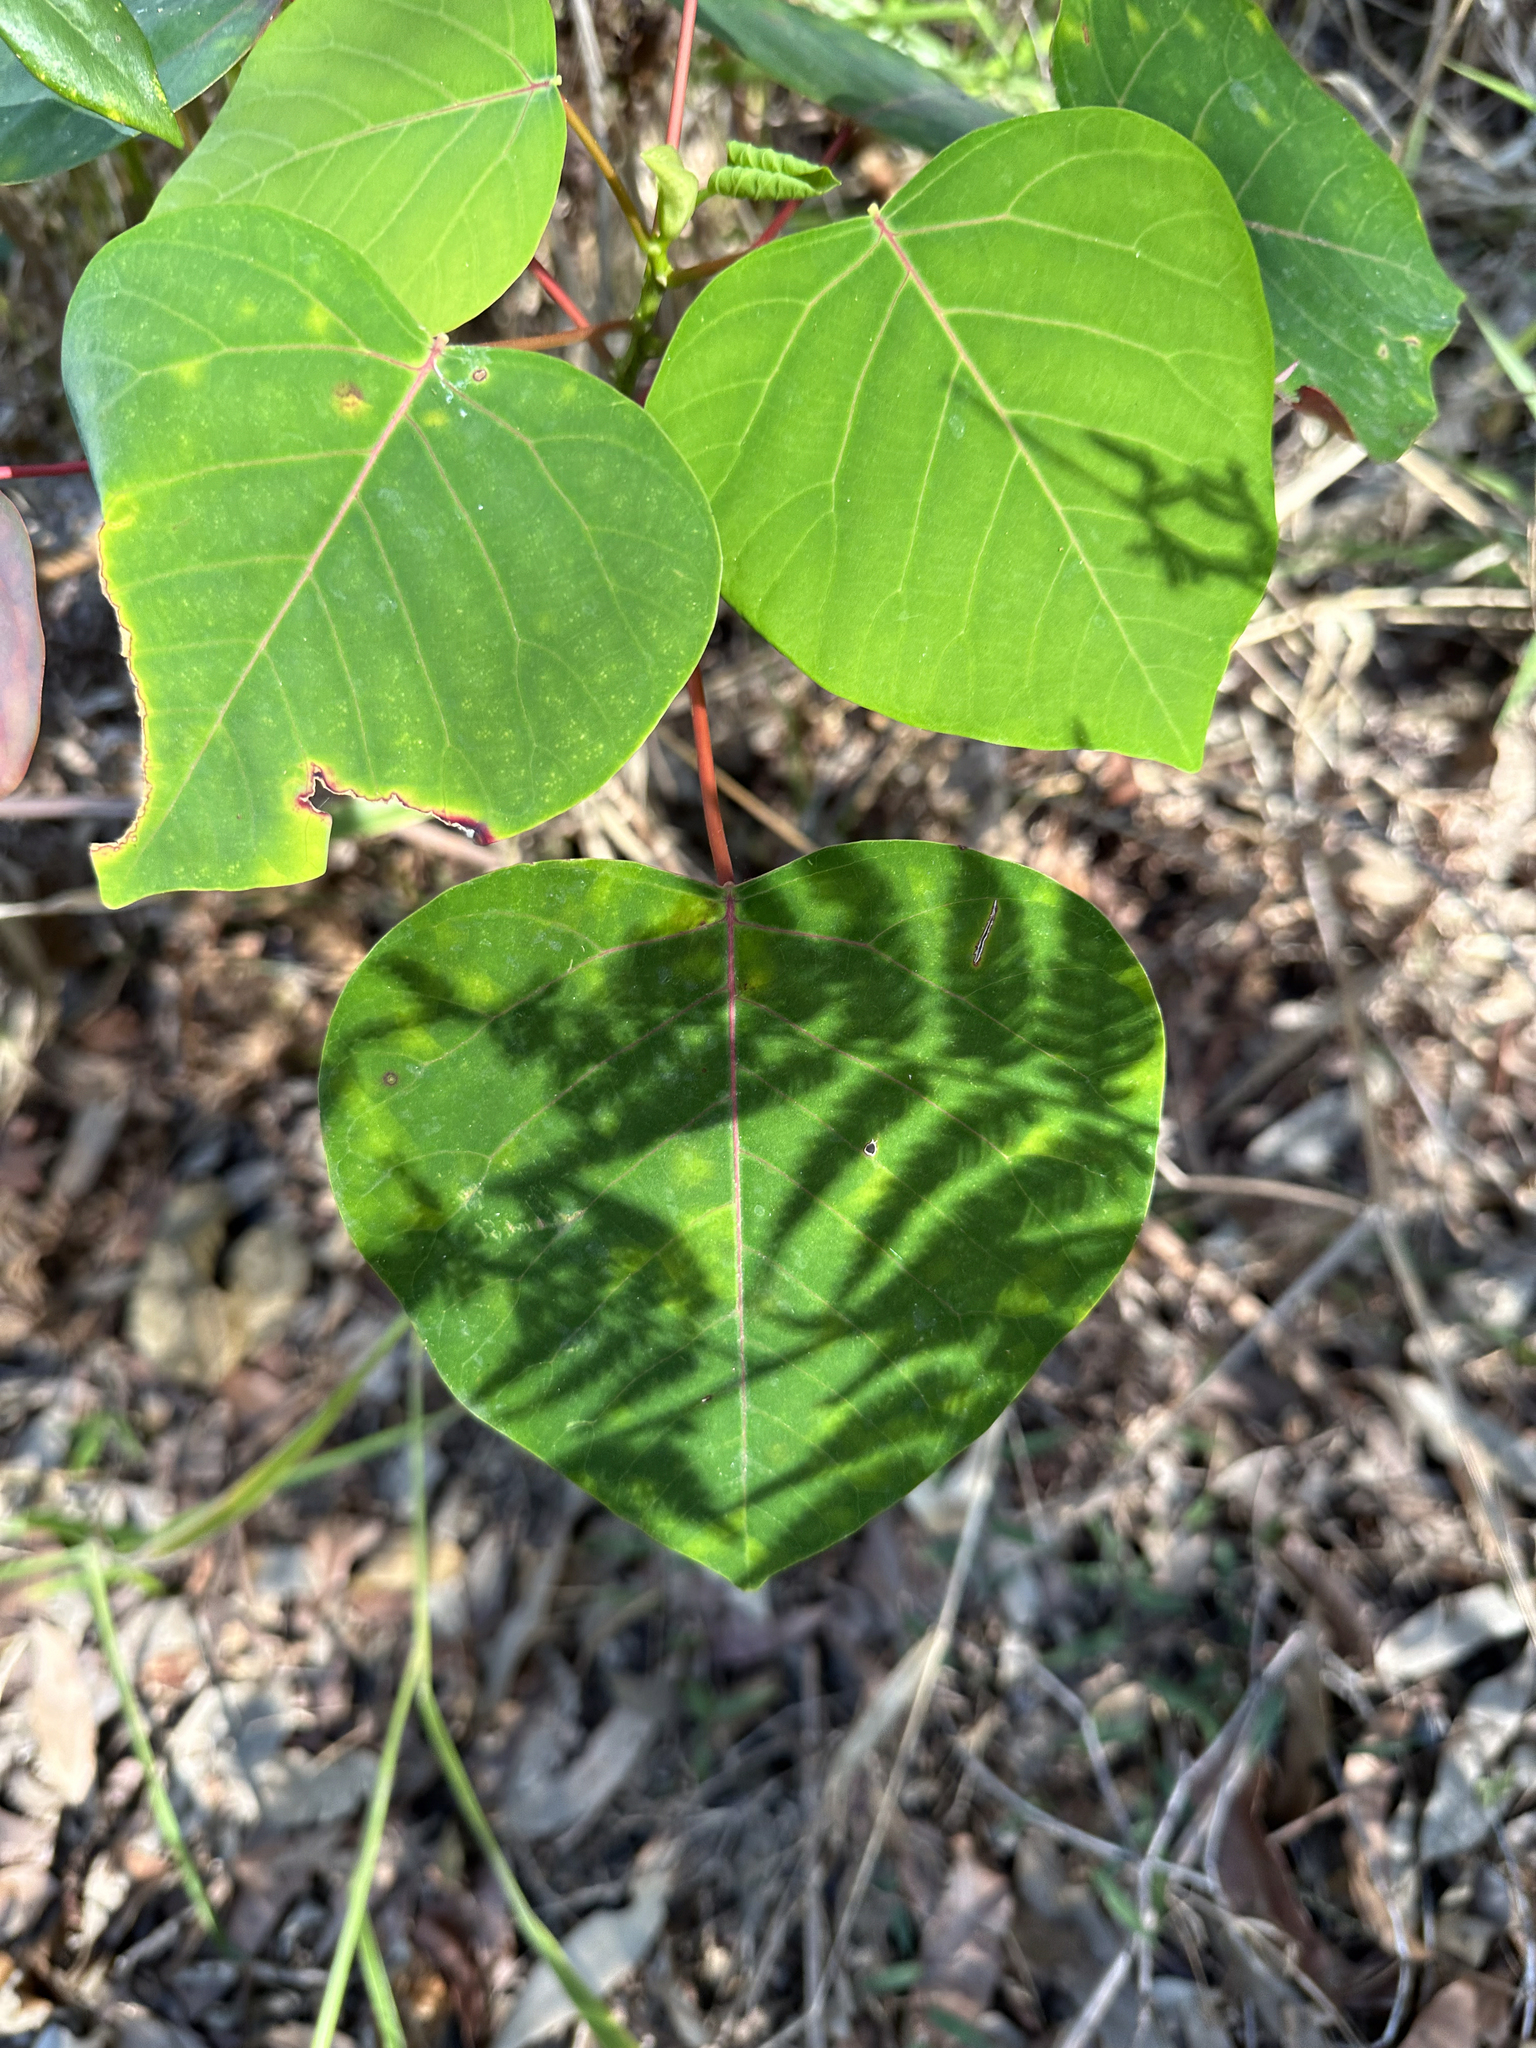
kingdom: Plantae
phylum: Tracheophyta
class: Magnoliopsida
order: Malpighiales
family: Euphorbiaceae
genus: Homalanthus
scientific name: Homalanthus populifolius
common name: Queensland poplar
